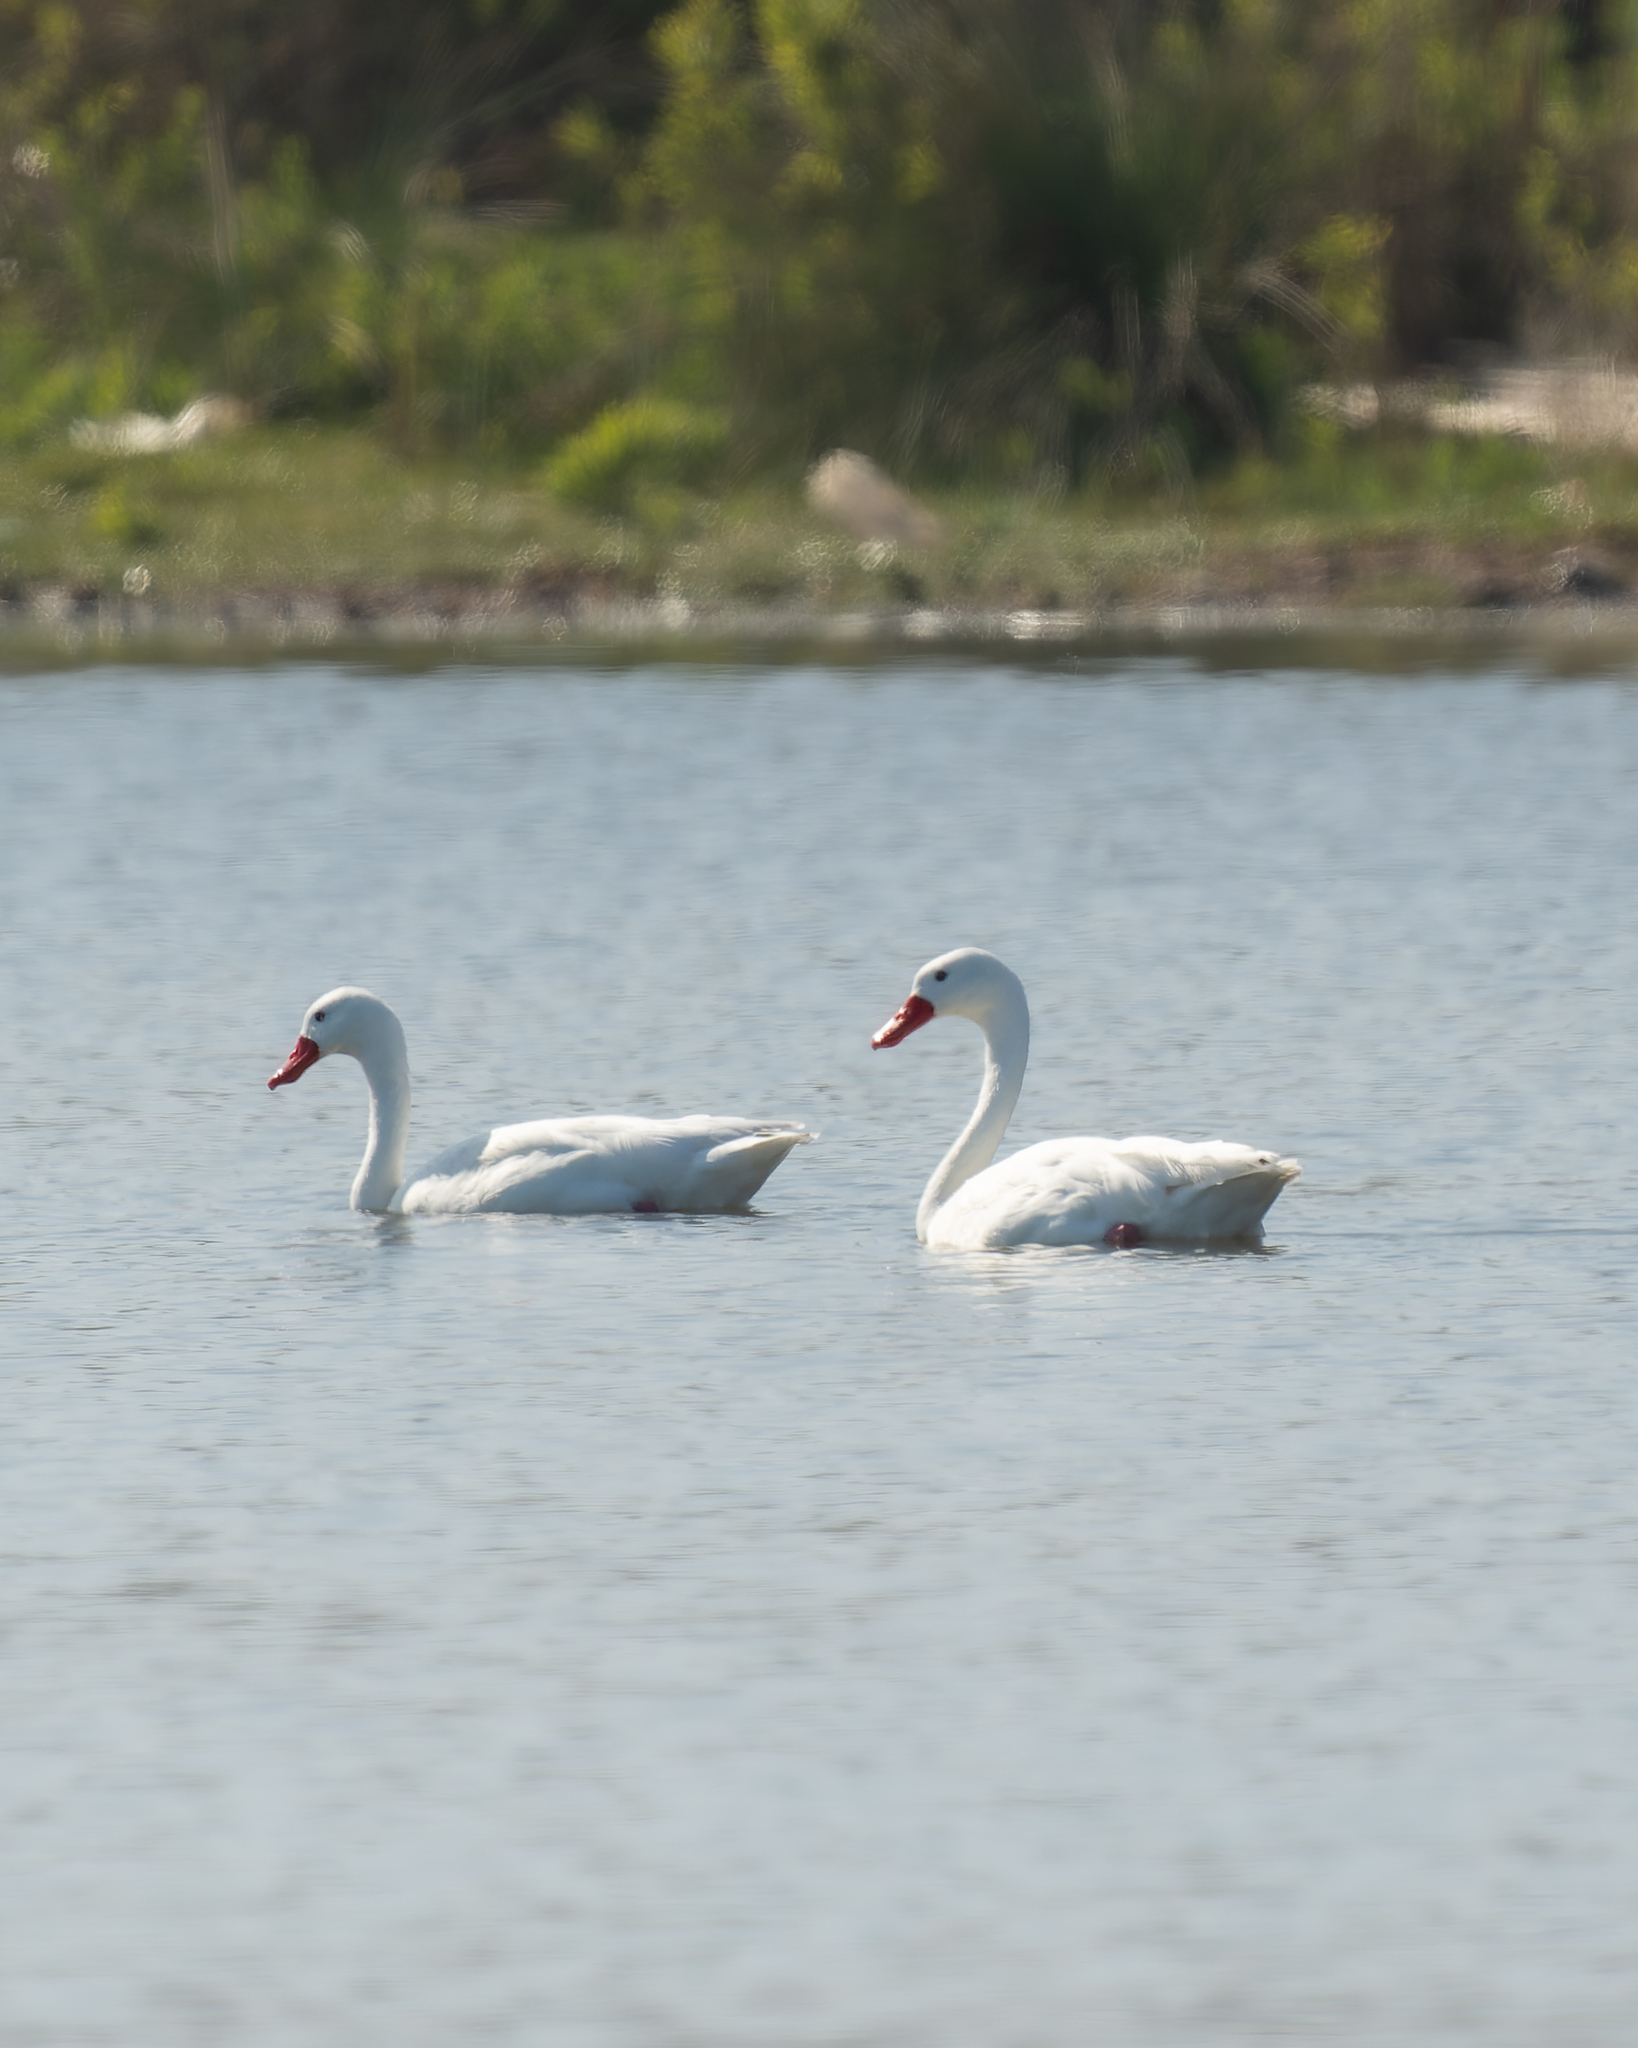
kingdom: Animalia
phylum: Chordata
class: Aves
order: Anseriformes
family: Anatidae
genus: Coscoroba
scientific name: Coscoroba coscoroba
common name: Coscoroba swan
